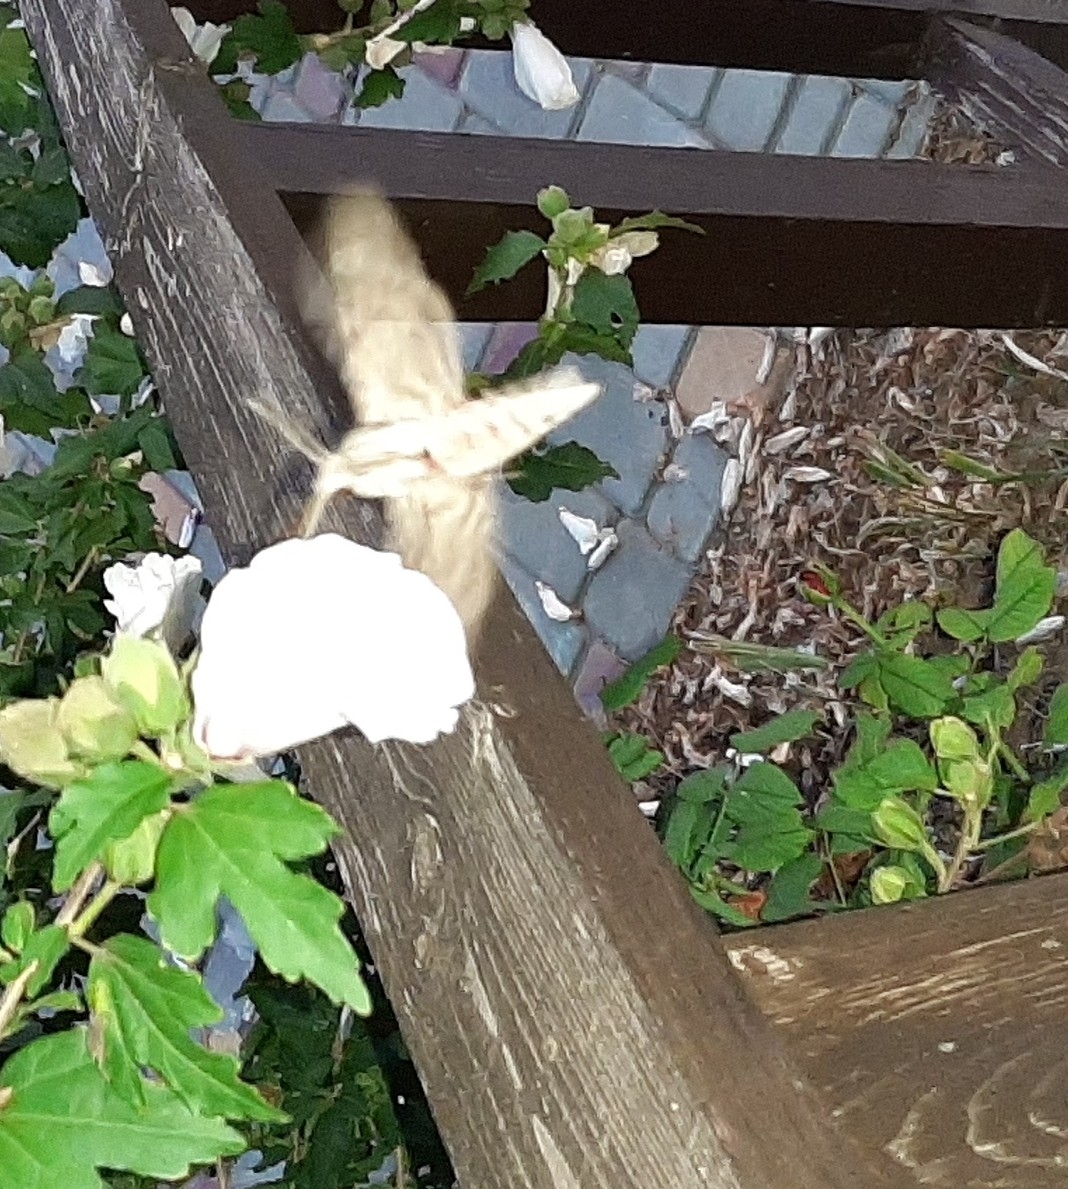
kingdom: Animalia
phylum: Arthropoda
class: Insecta
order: Lepidoptera
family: Sphingidae
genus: Agrius
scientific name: Agrius convolvuli
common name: Convolvulus hawkmoth
